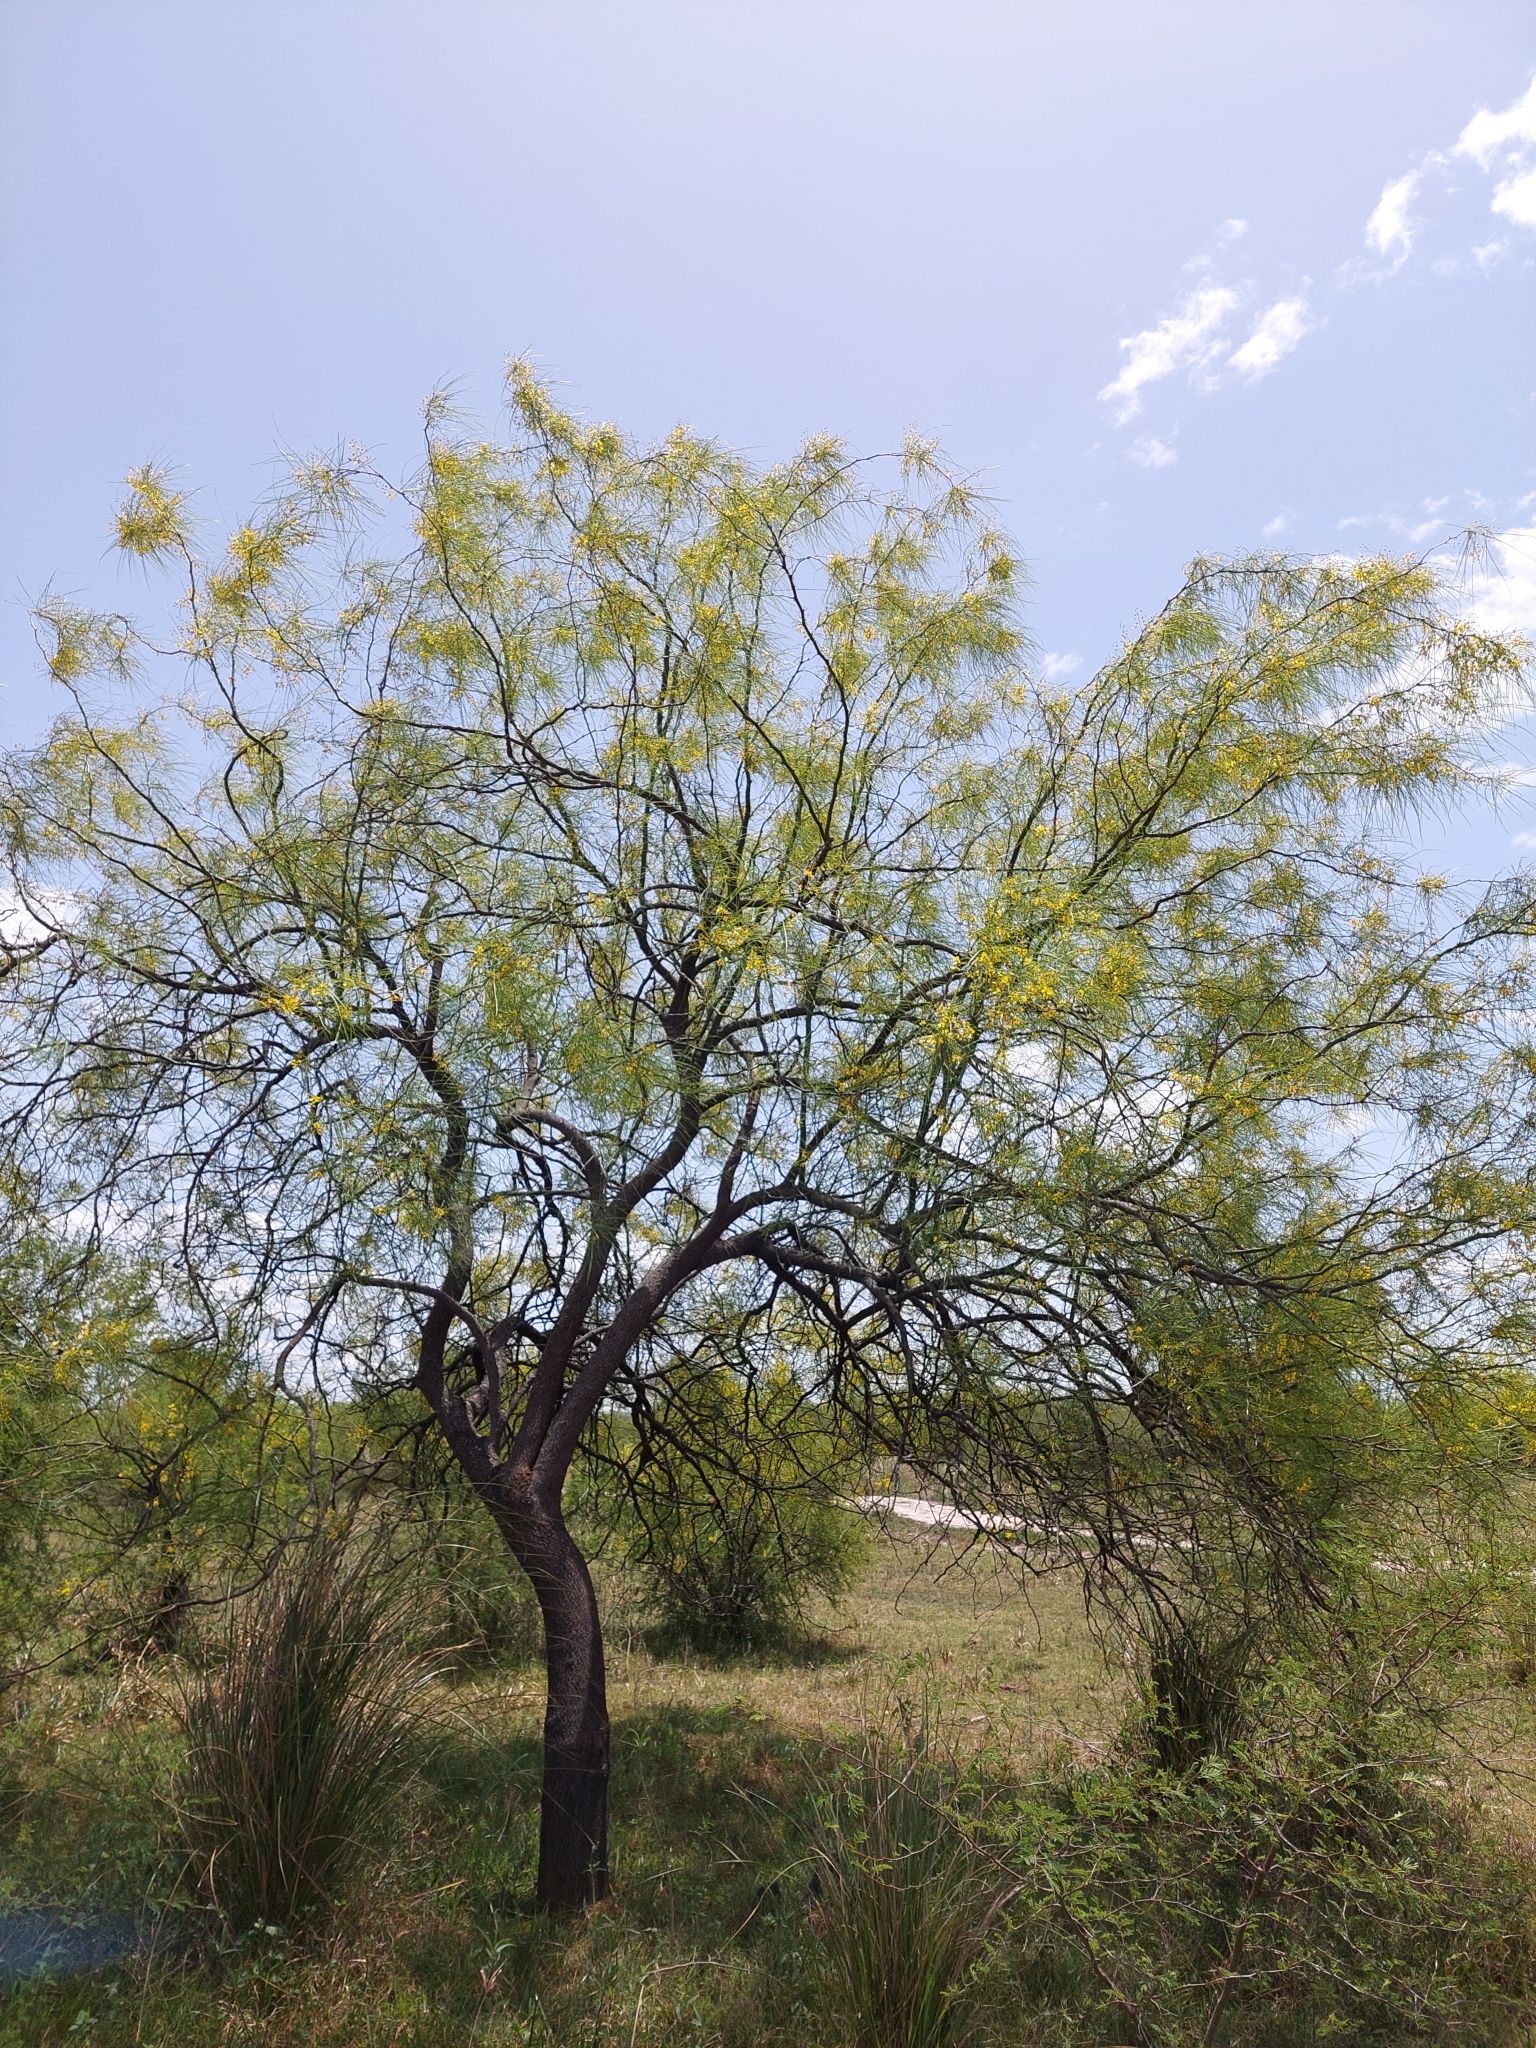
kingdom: Plantae
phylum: Tracheophyta
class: Magnoliopsida
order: Fabales
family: Fabaceae
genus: Parkinsonia
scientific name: Parkinsonia aculeata
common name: Jerusalem thorn
